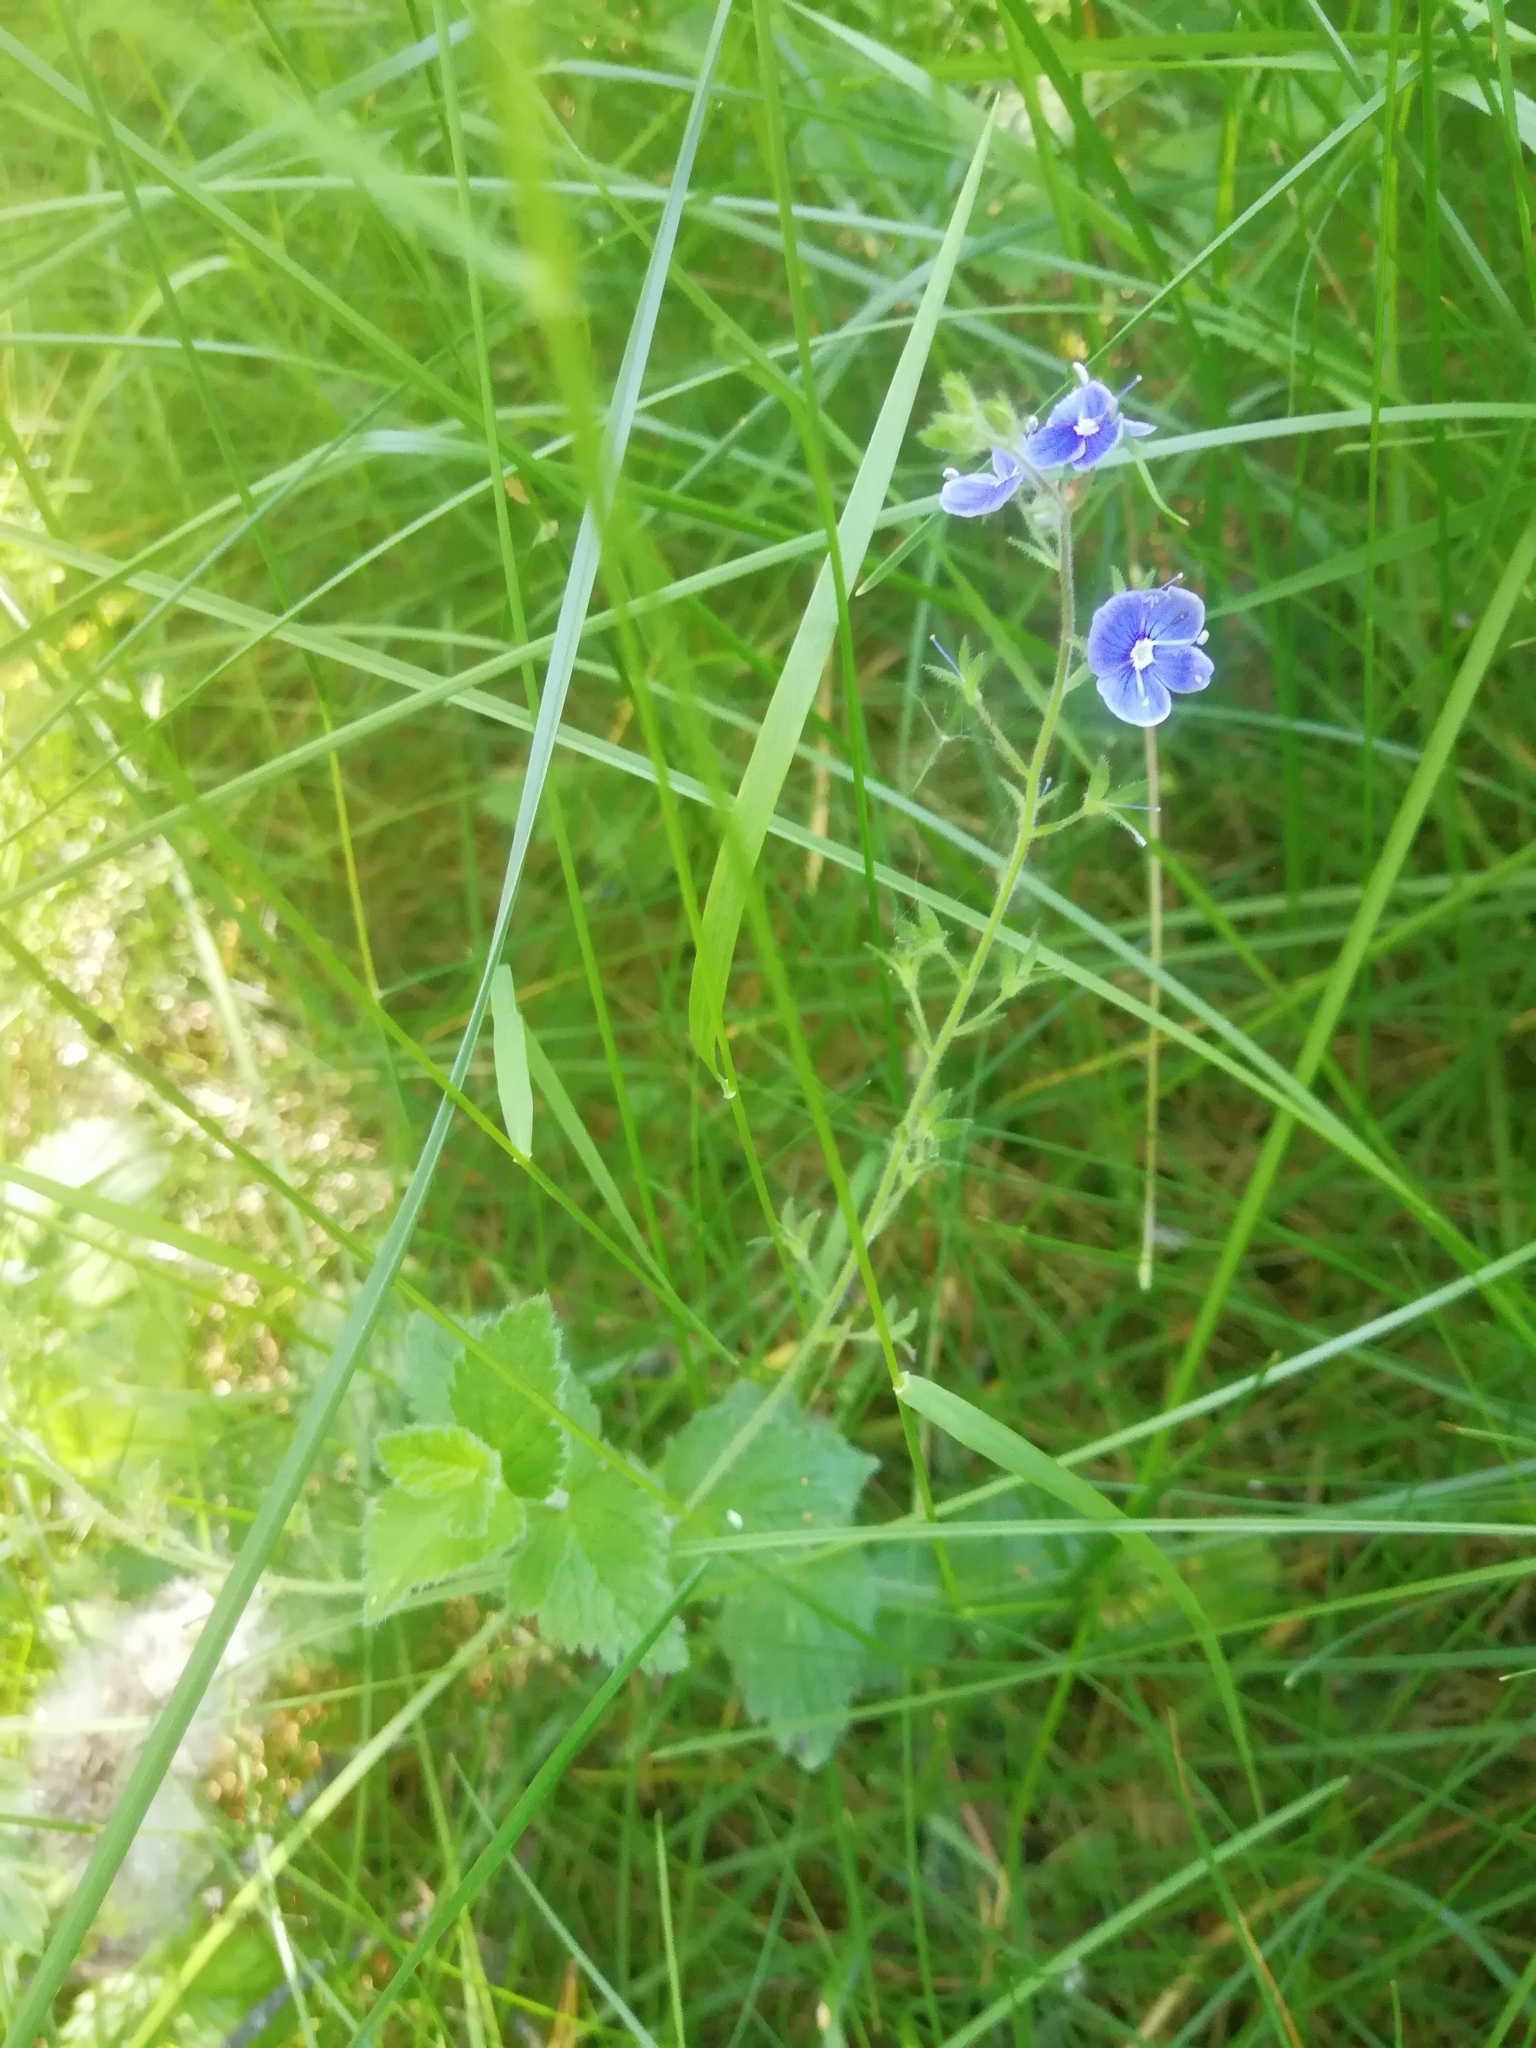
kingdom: Plantae
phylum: Tracheophyta
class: Magnoliopsida
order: Lamiales
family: Plantaginaceae
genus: Veronica
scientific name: Veronica chamaedrys
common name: Germander speedwell
